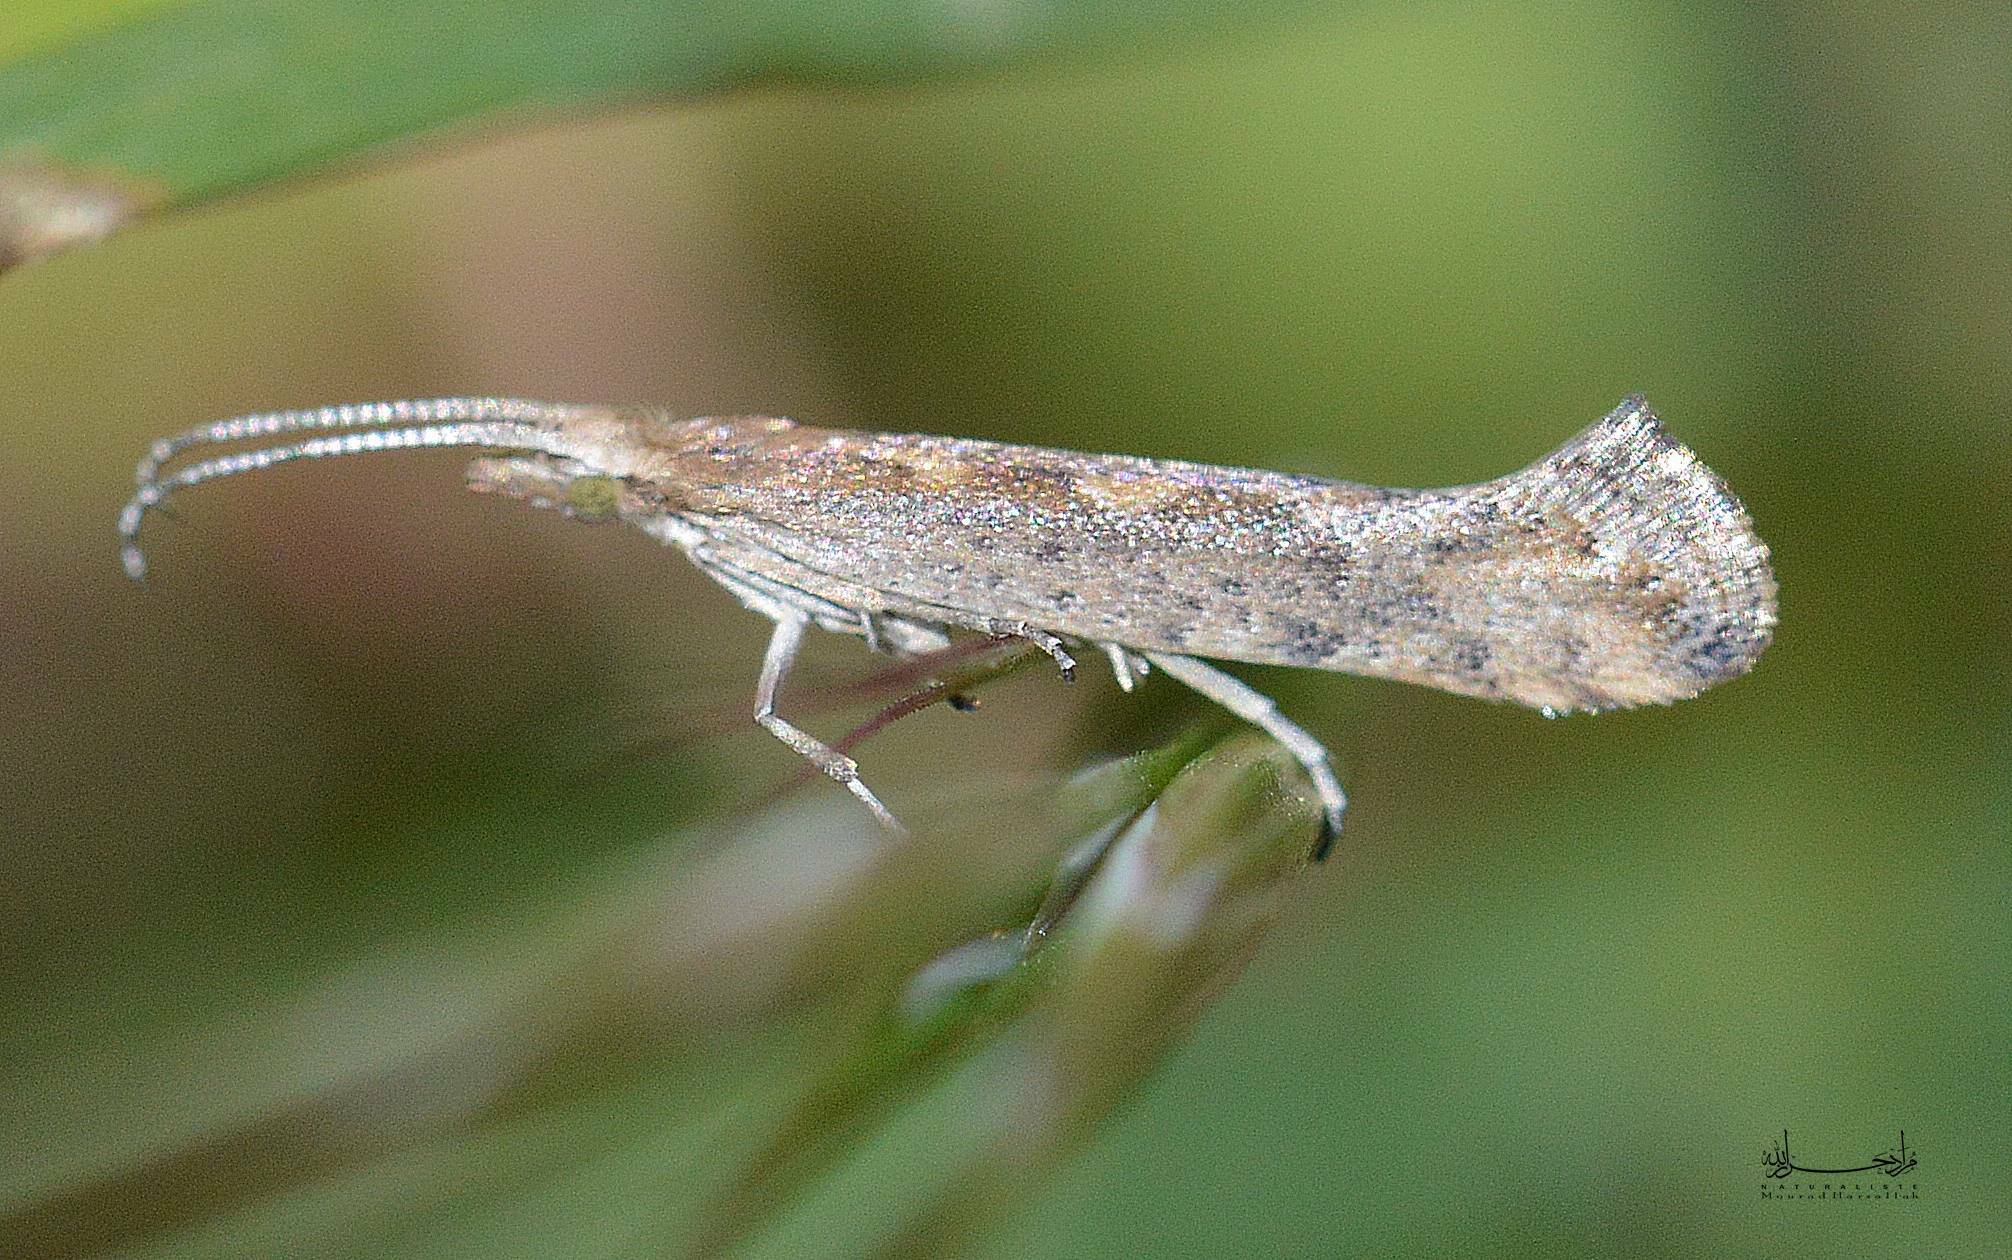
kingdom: Animalia
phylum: Arthropoda
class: Insecta
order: Lepidoptera
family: Plutellidae
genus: Plutella
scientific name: Plutella xylostella
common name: Diamond-back moth
